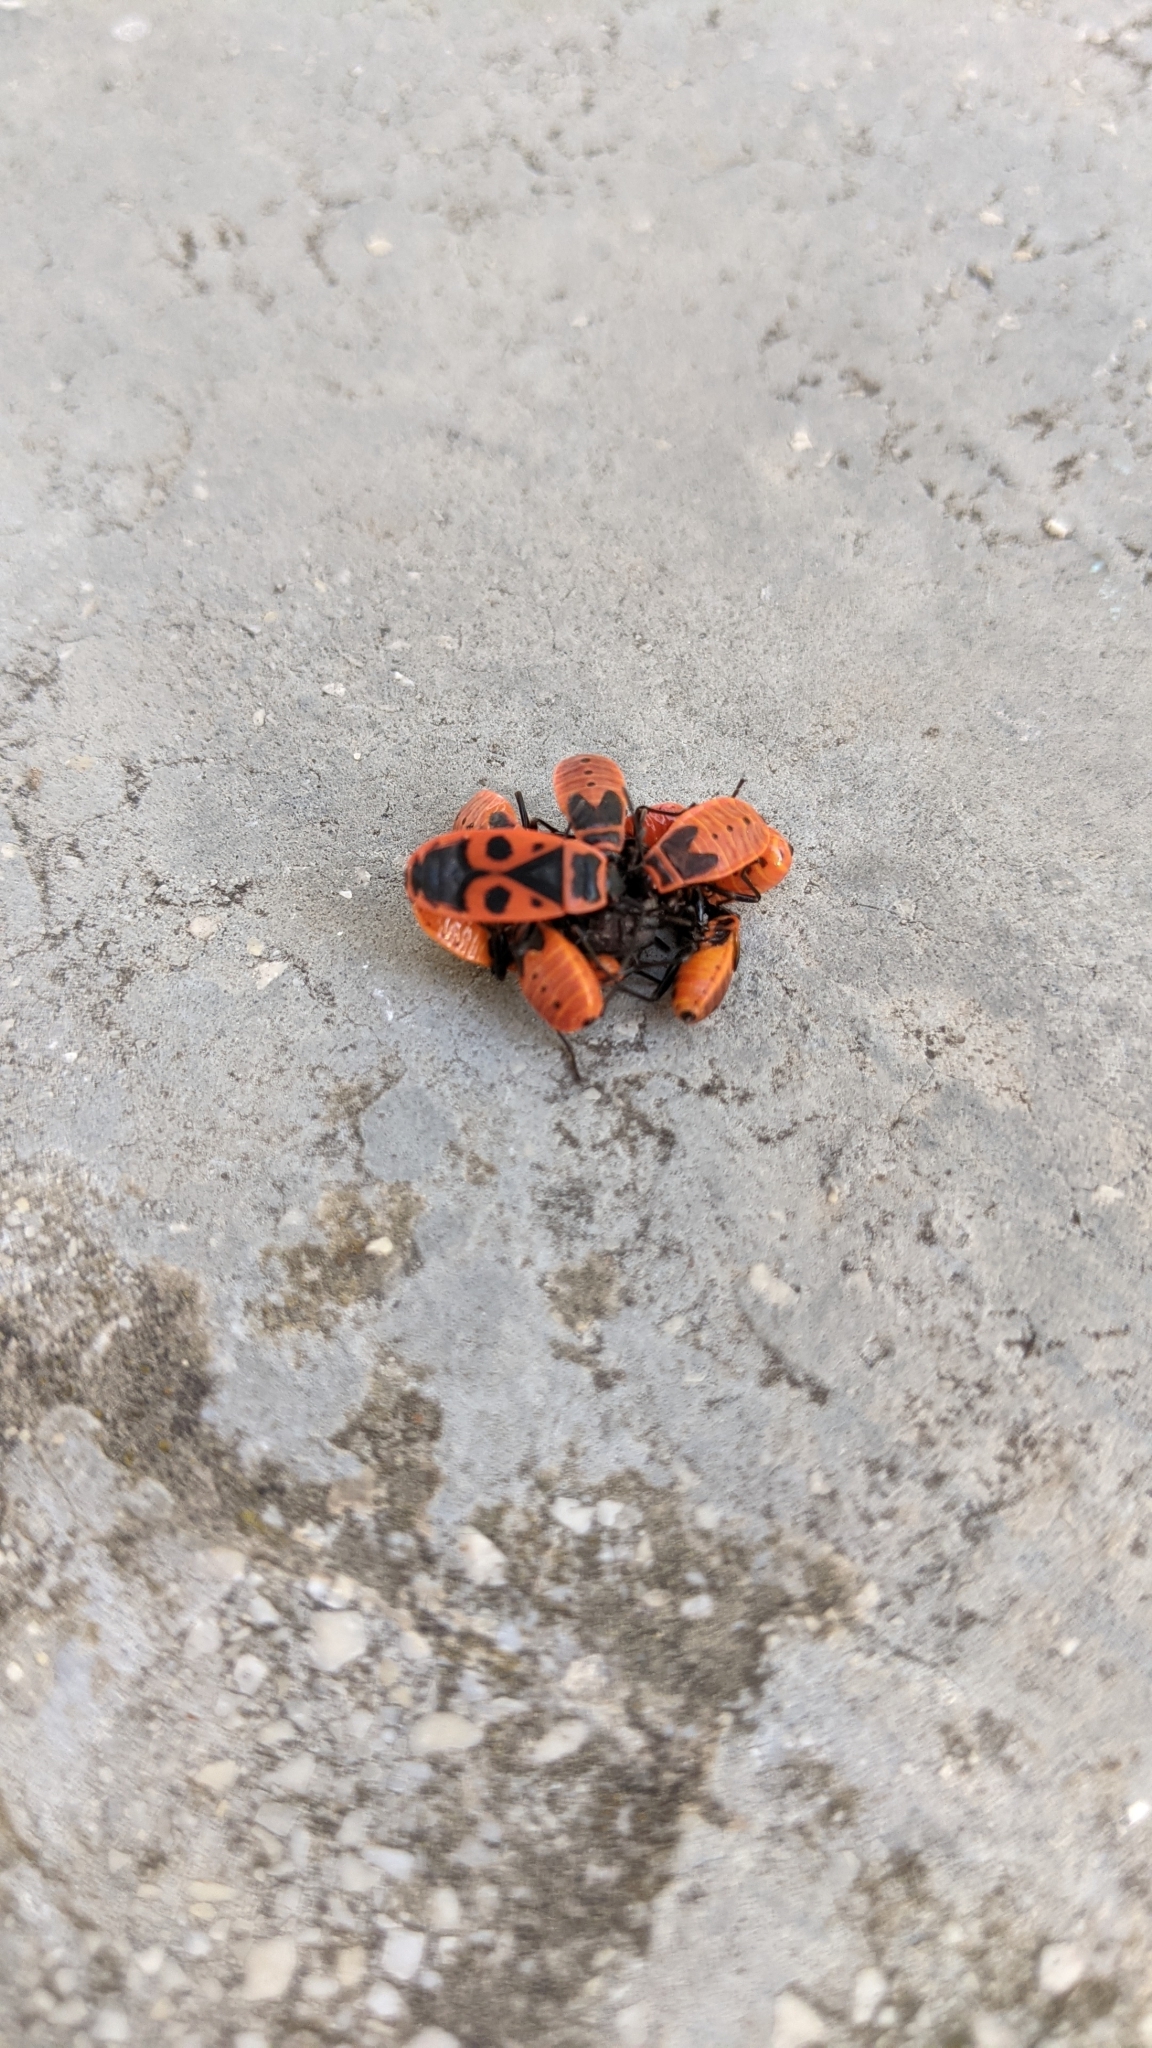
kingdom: Animalia
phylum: Arthropoda
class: Insecta
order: Hemiptera
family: Pyrrhocoridae
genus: Pyrrhocoris
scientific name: Pyrrhocoris apterus
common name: Firebug
